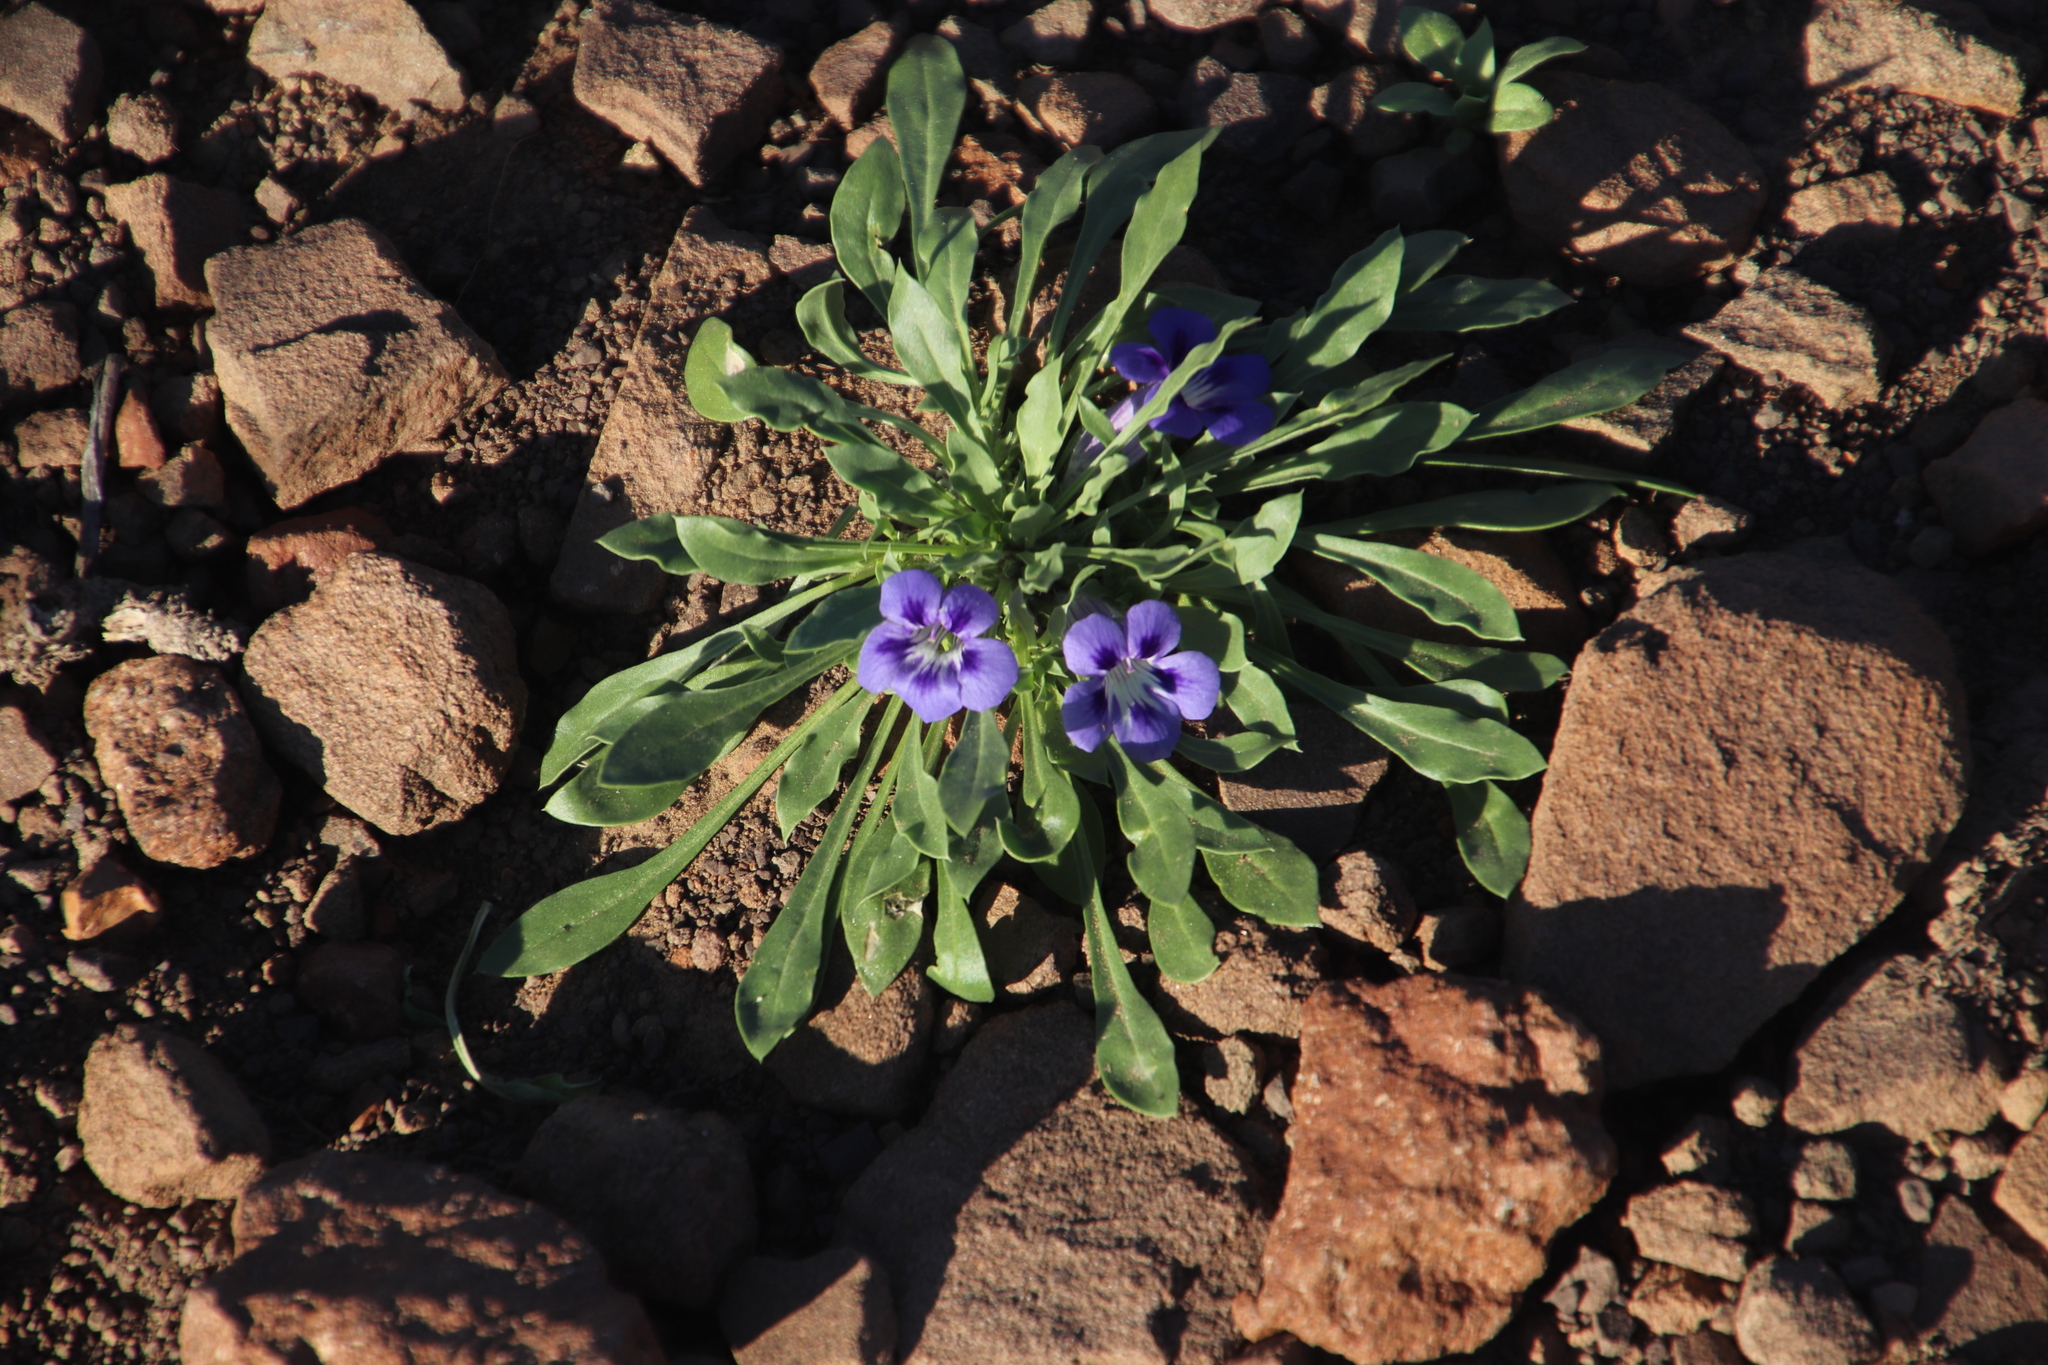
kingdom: Plantae
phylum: Tracheophyta
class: Magnoliopsida
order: Lamiales
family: Scrophulariaceae
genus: Aptosimum
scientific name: Aptosimum indivisum
